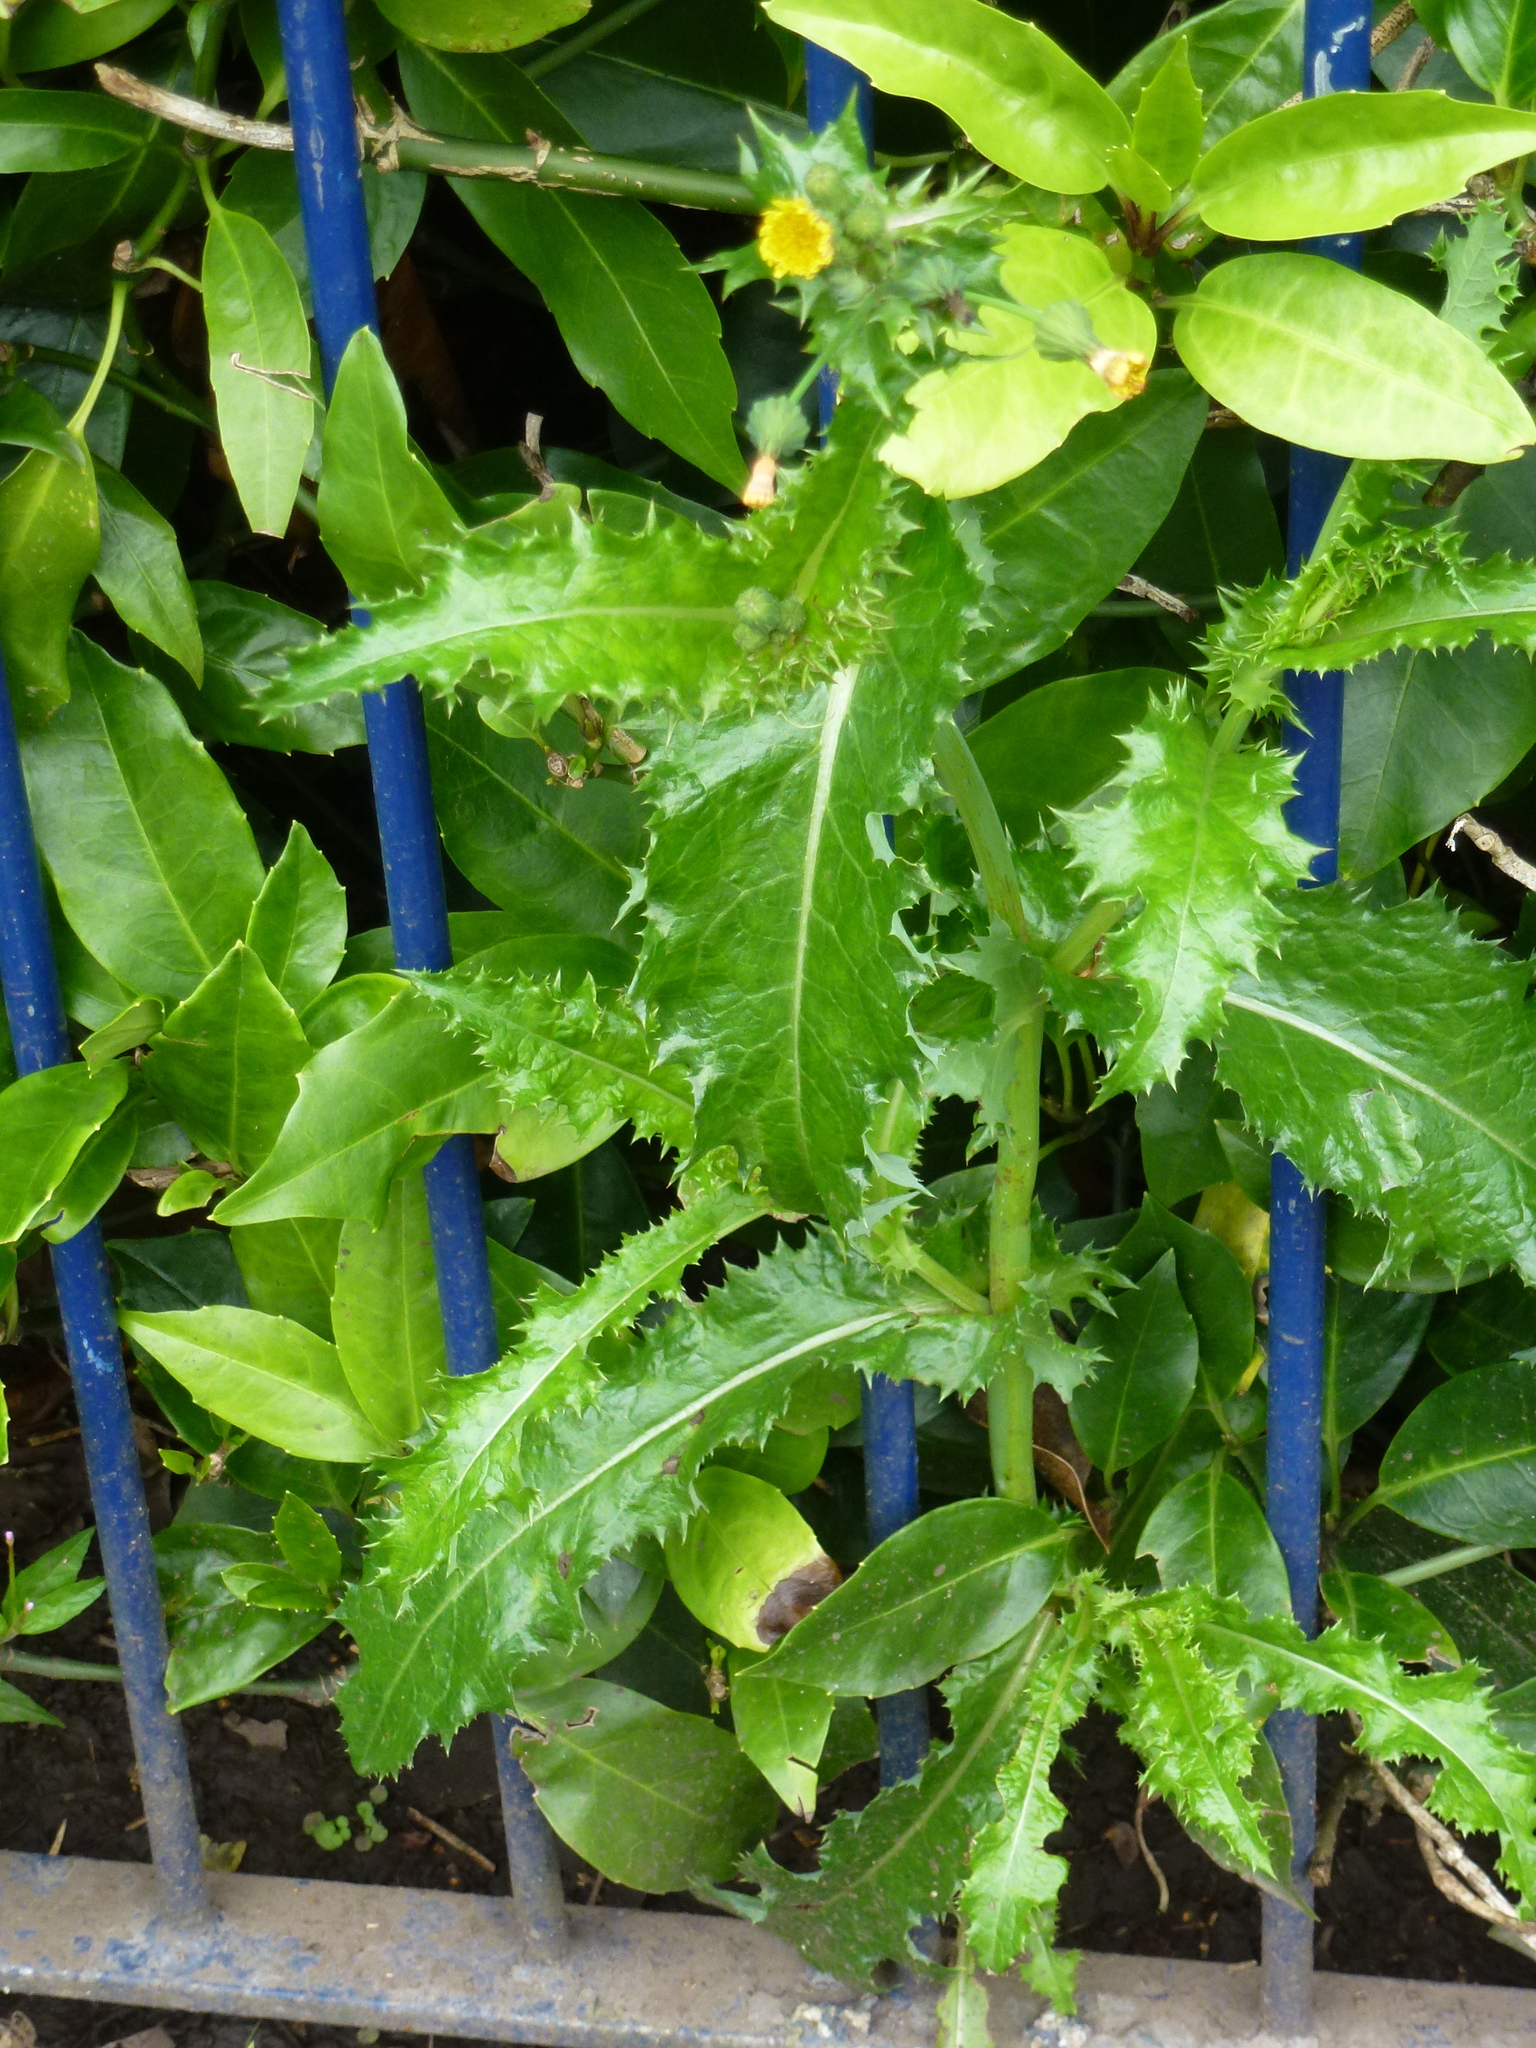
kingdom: Plantae
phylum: Tracheophyta
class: Magnoliopsida
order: Asterales
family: Asteraceae
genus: Sonchus
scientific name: Sonchus asper
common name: Prickly sow-thistle
